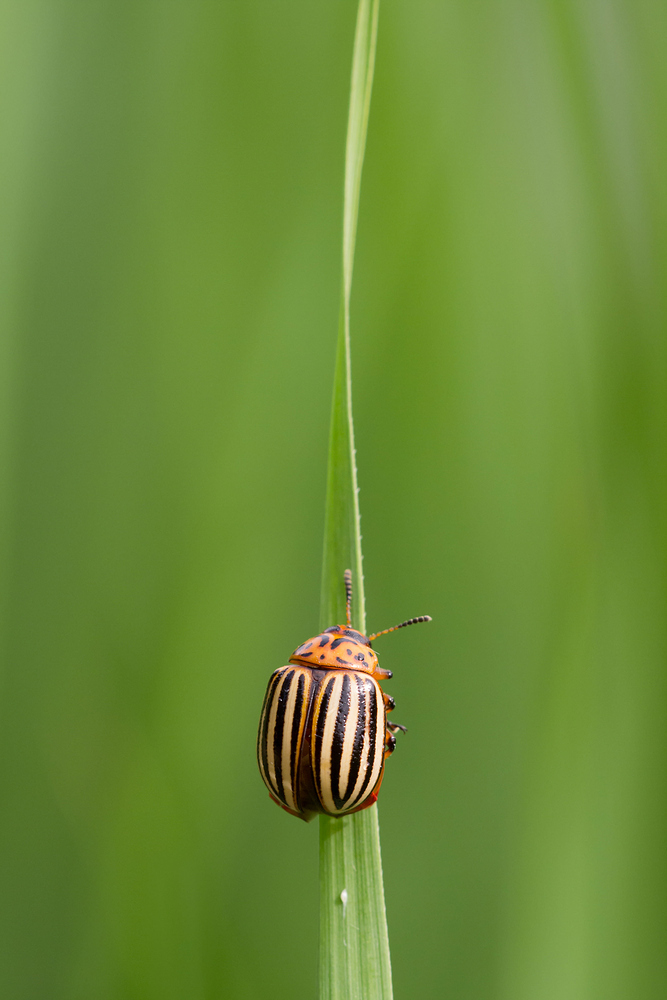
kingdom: Animalia
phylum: Arthropoda
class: Insecta
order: Coleoptera
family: Chrysomelidae
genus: Leptinotarsa
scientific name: Leptinotarsa decemlineata
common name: Colorado potato beetle
